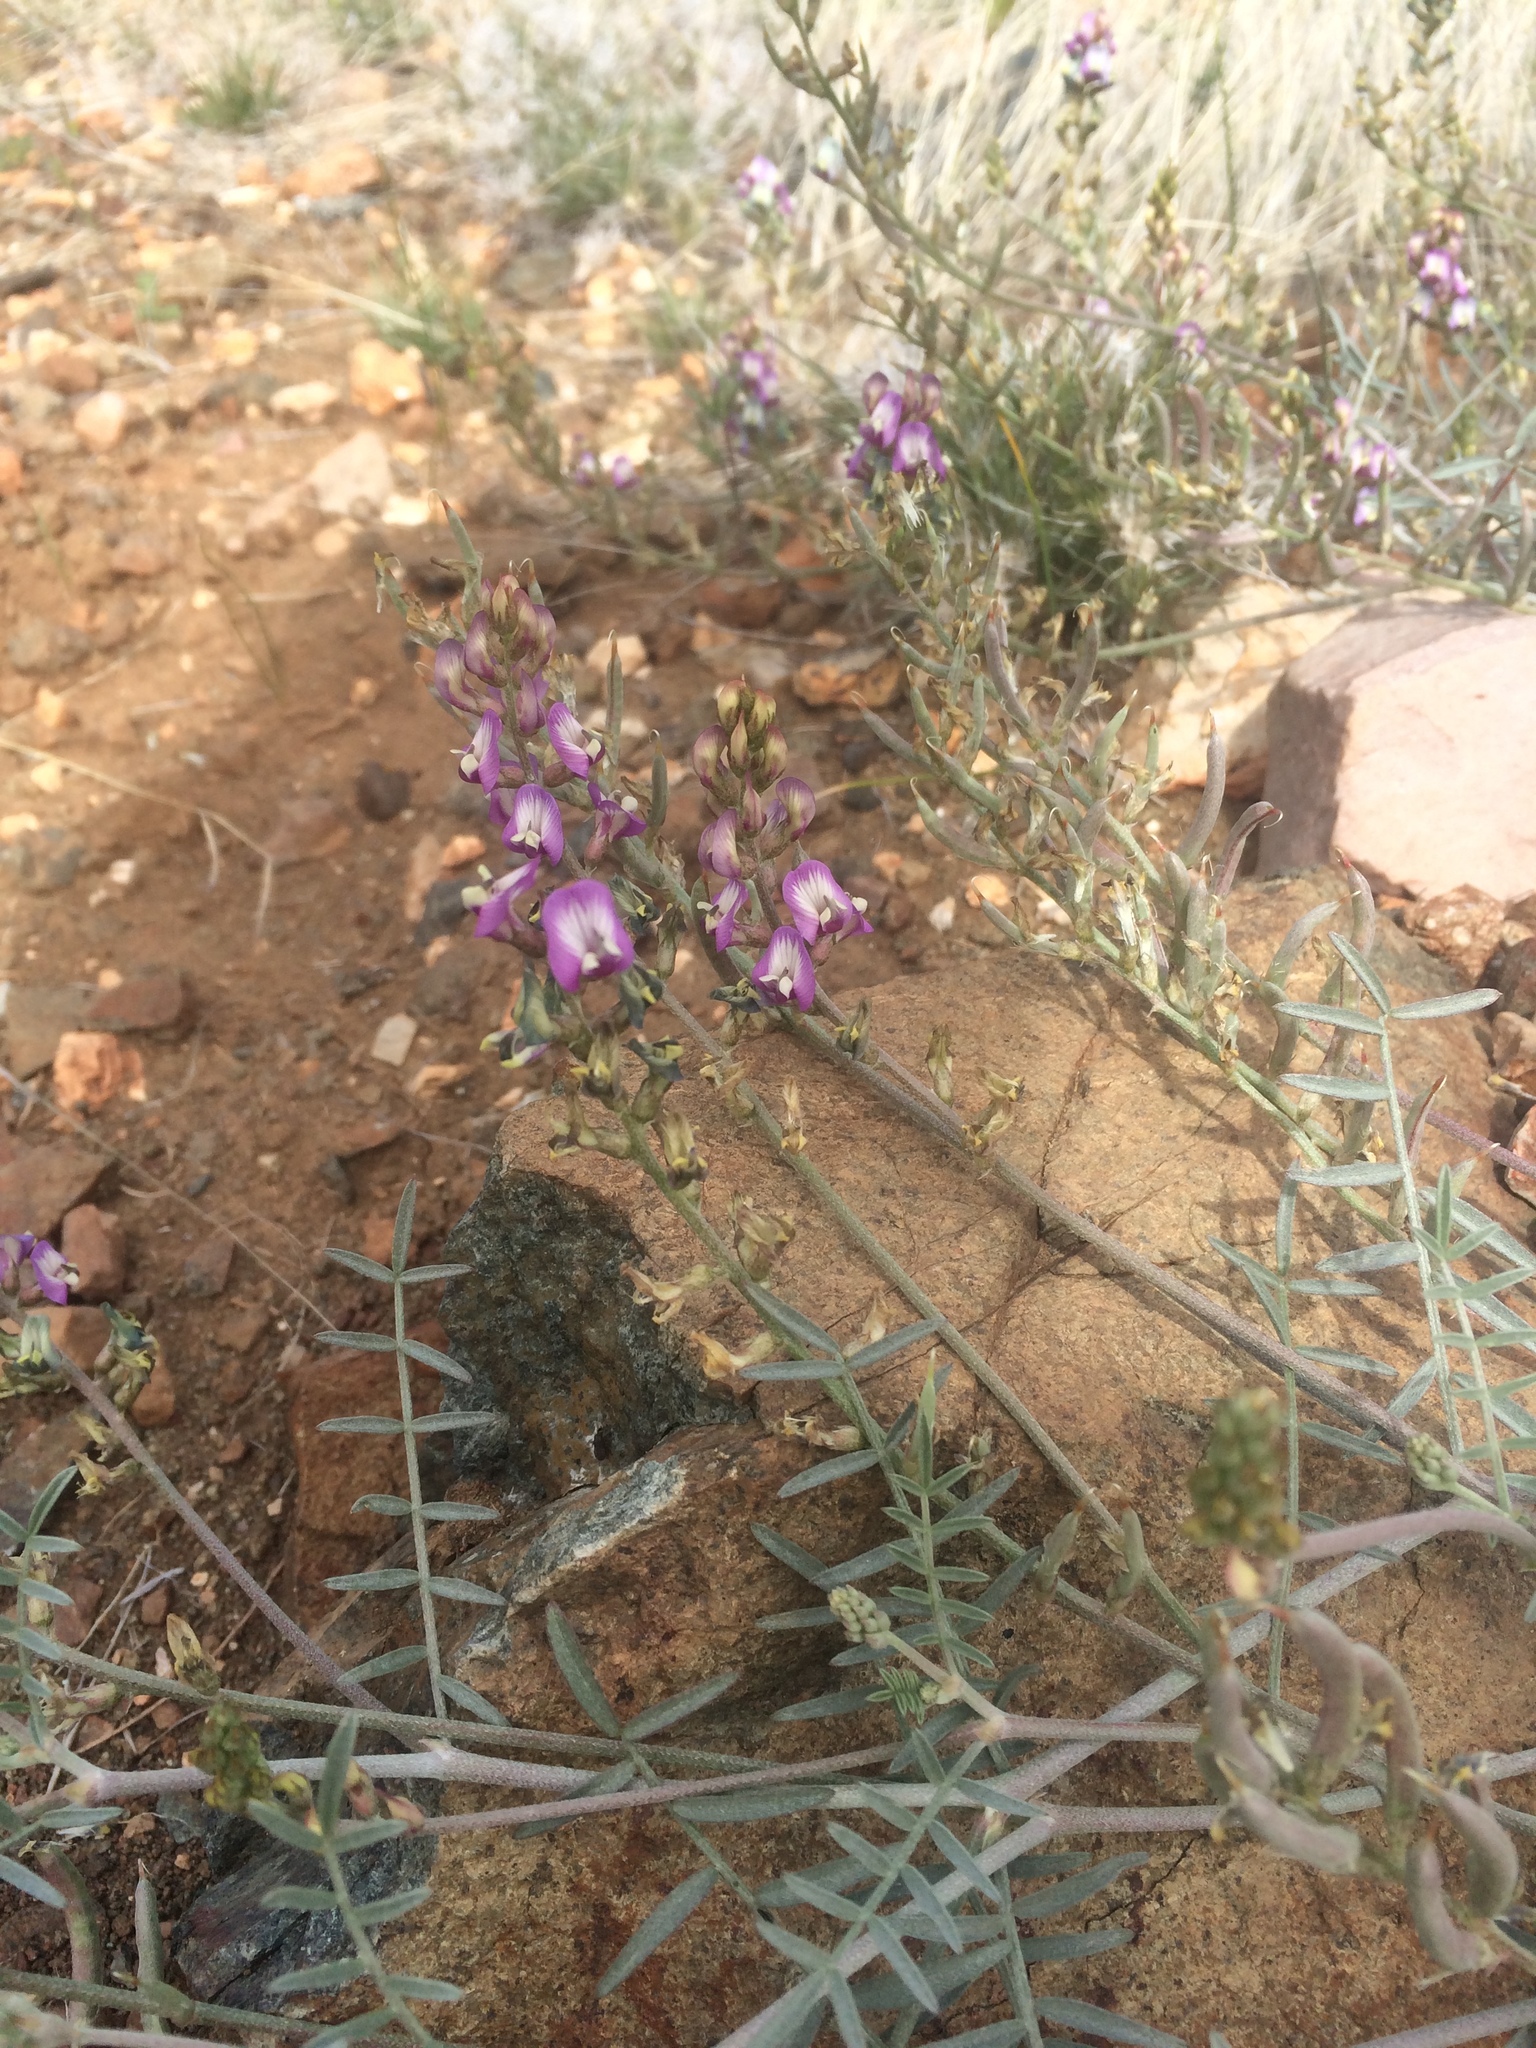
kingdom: Plantae
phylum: Tracheophyta
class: Magnoliopsida
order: Fabales
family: Fabaceae
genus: Astragalus
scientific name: Astragalus arizonicus
